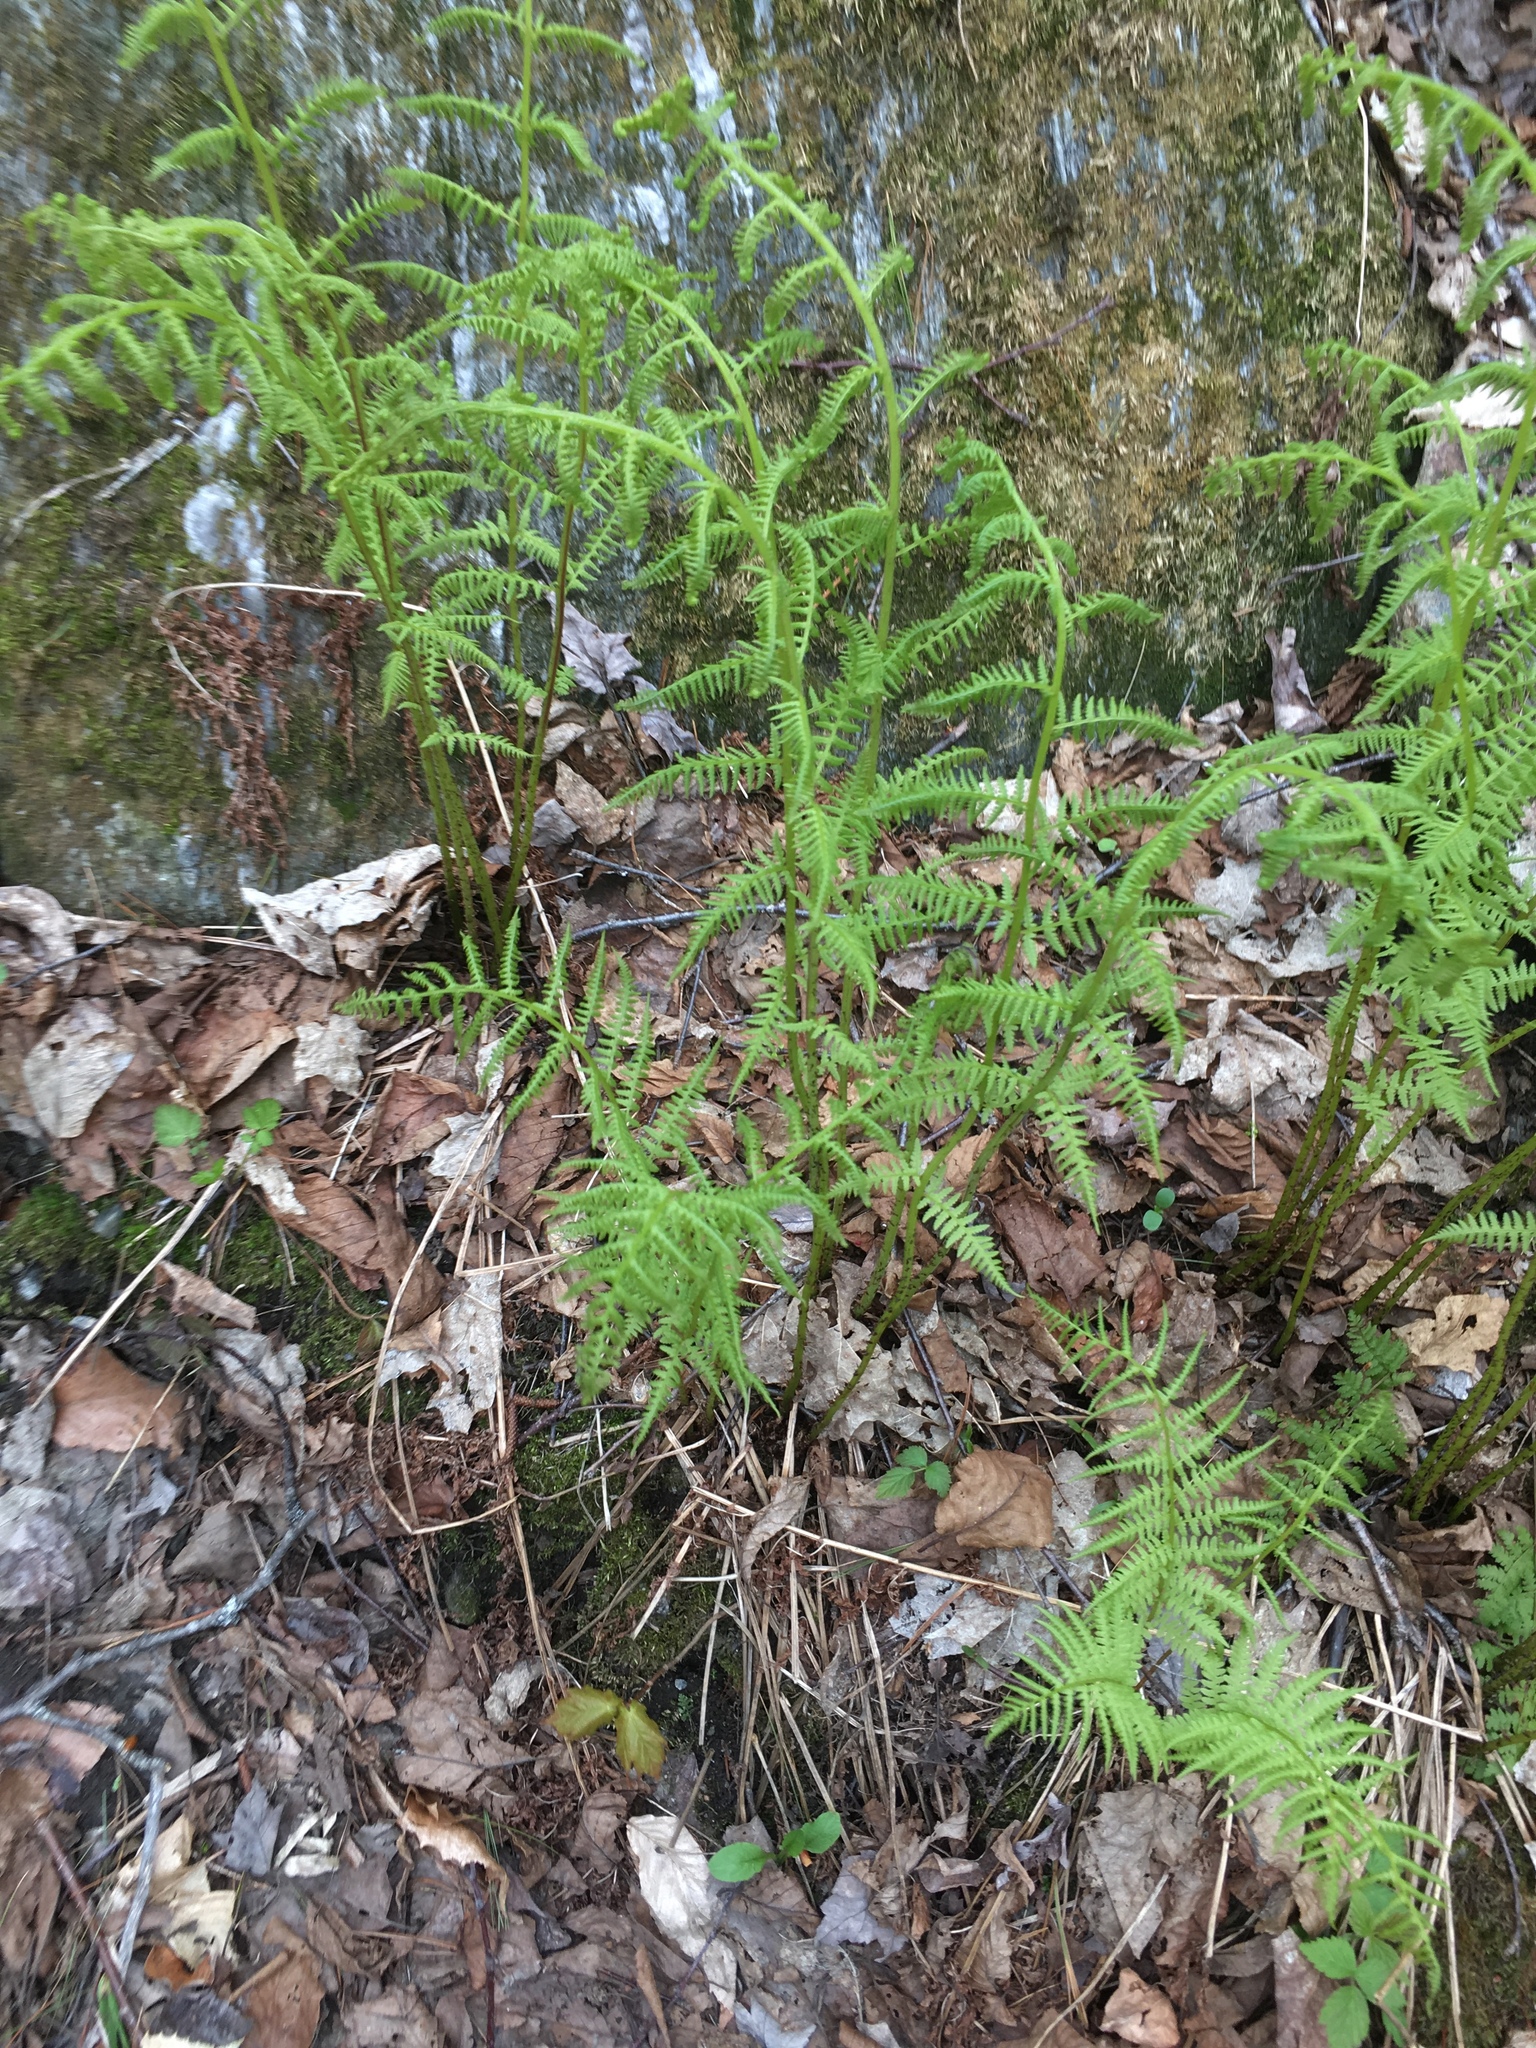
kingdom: Plantae
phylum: Tracheophyta
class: Polypodiopsida
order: Polypodiales
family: Athyriaceae
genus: Athyrium
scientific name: Athyrium angustum
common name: Northern lady fern
